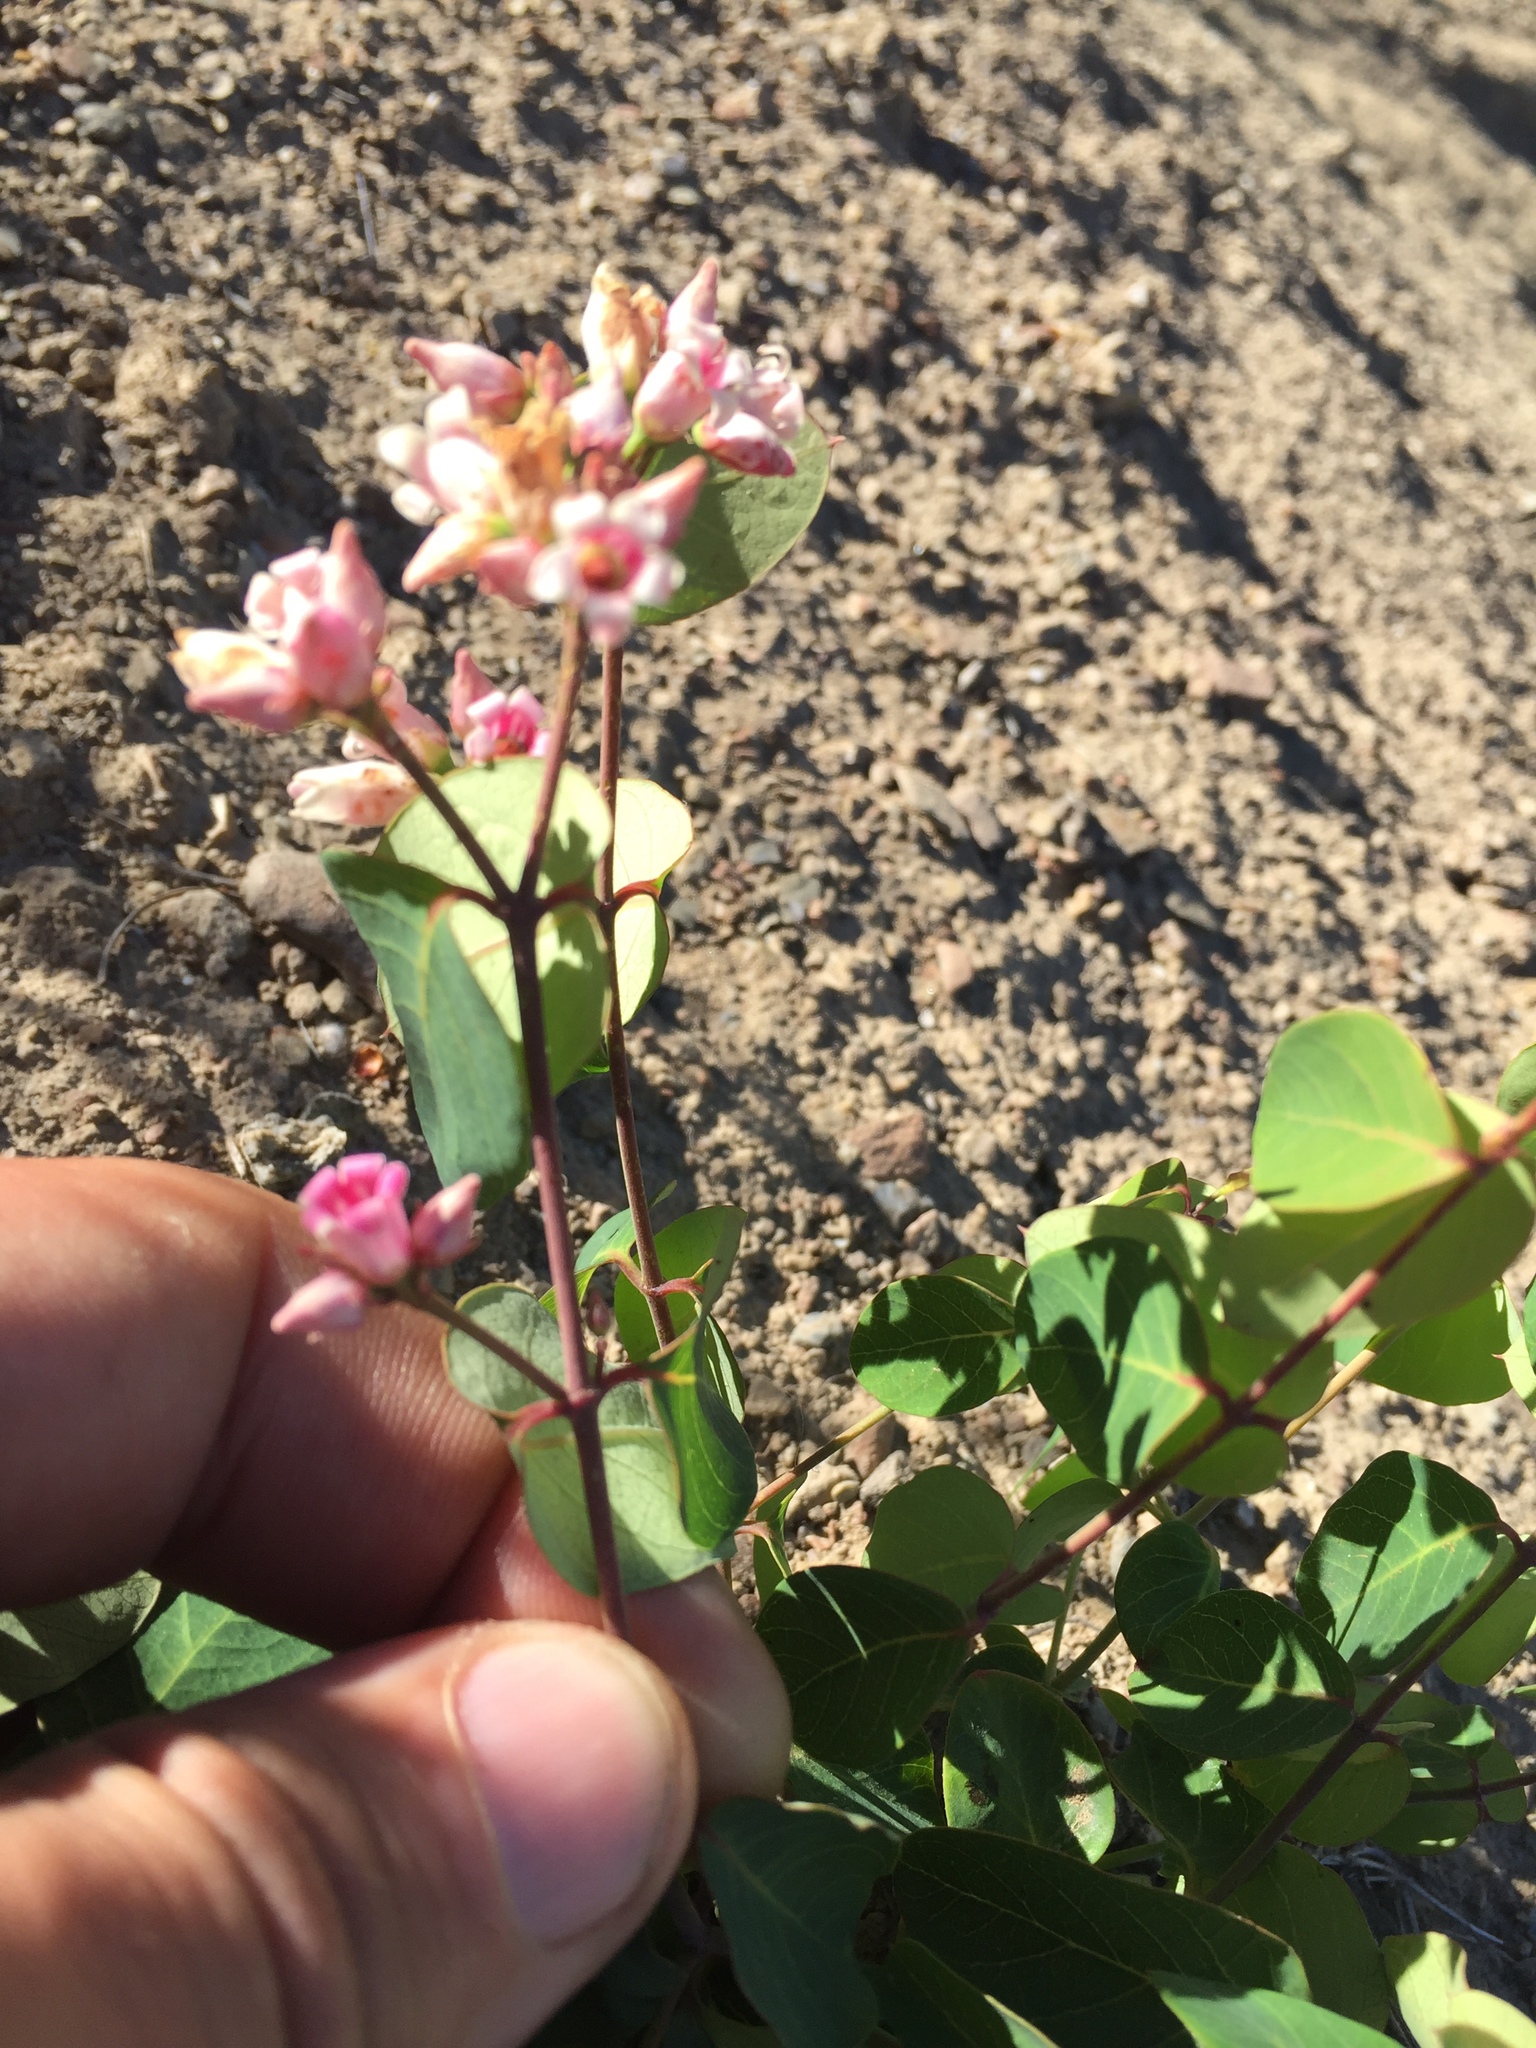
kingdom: Plantae
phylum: Tracheophyta
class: Magnoliopsida
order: Gentianales
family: Apocynaceae
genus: Apocynum
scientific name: Apocynum androsaemifolium
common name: Spreading dogbane
